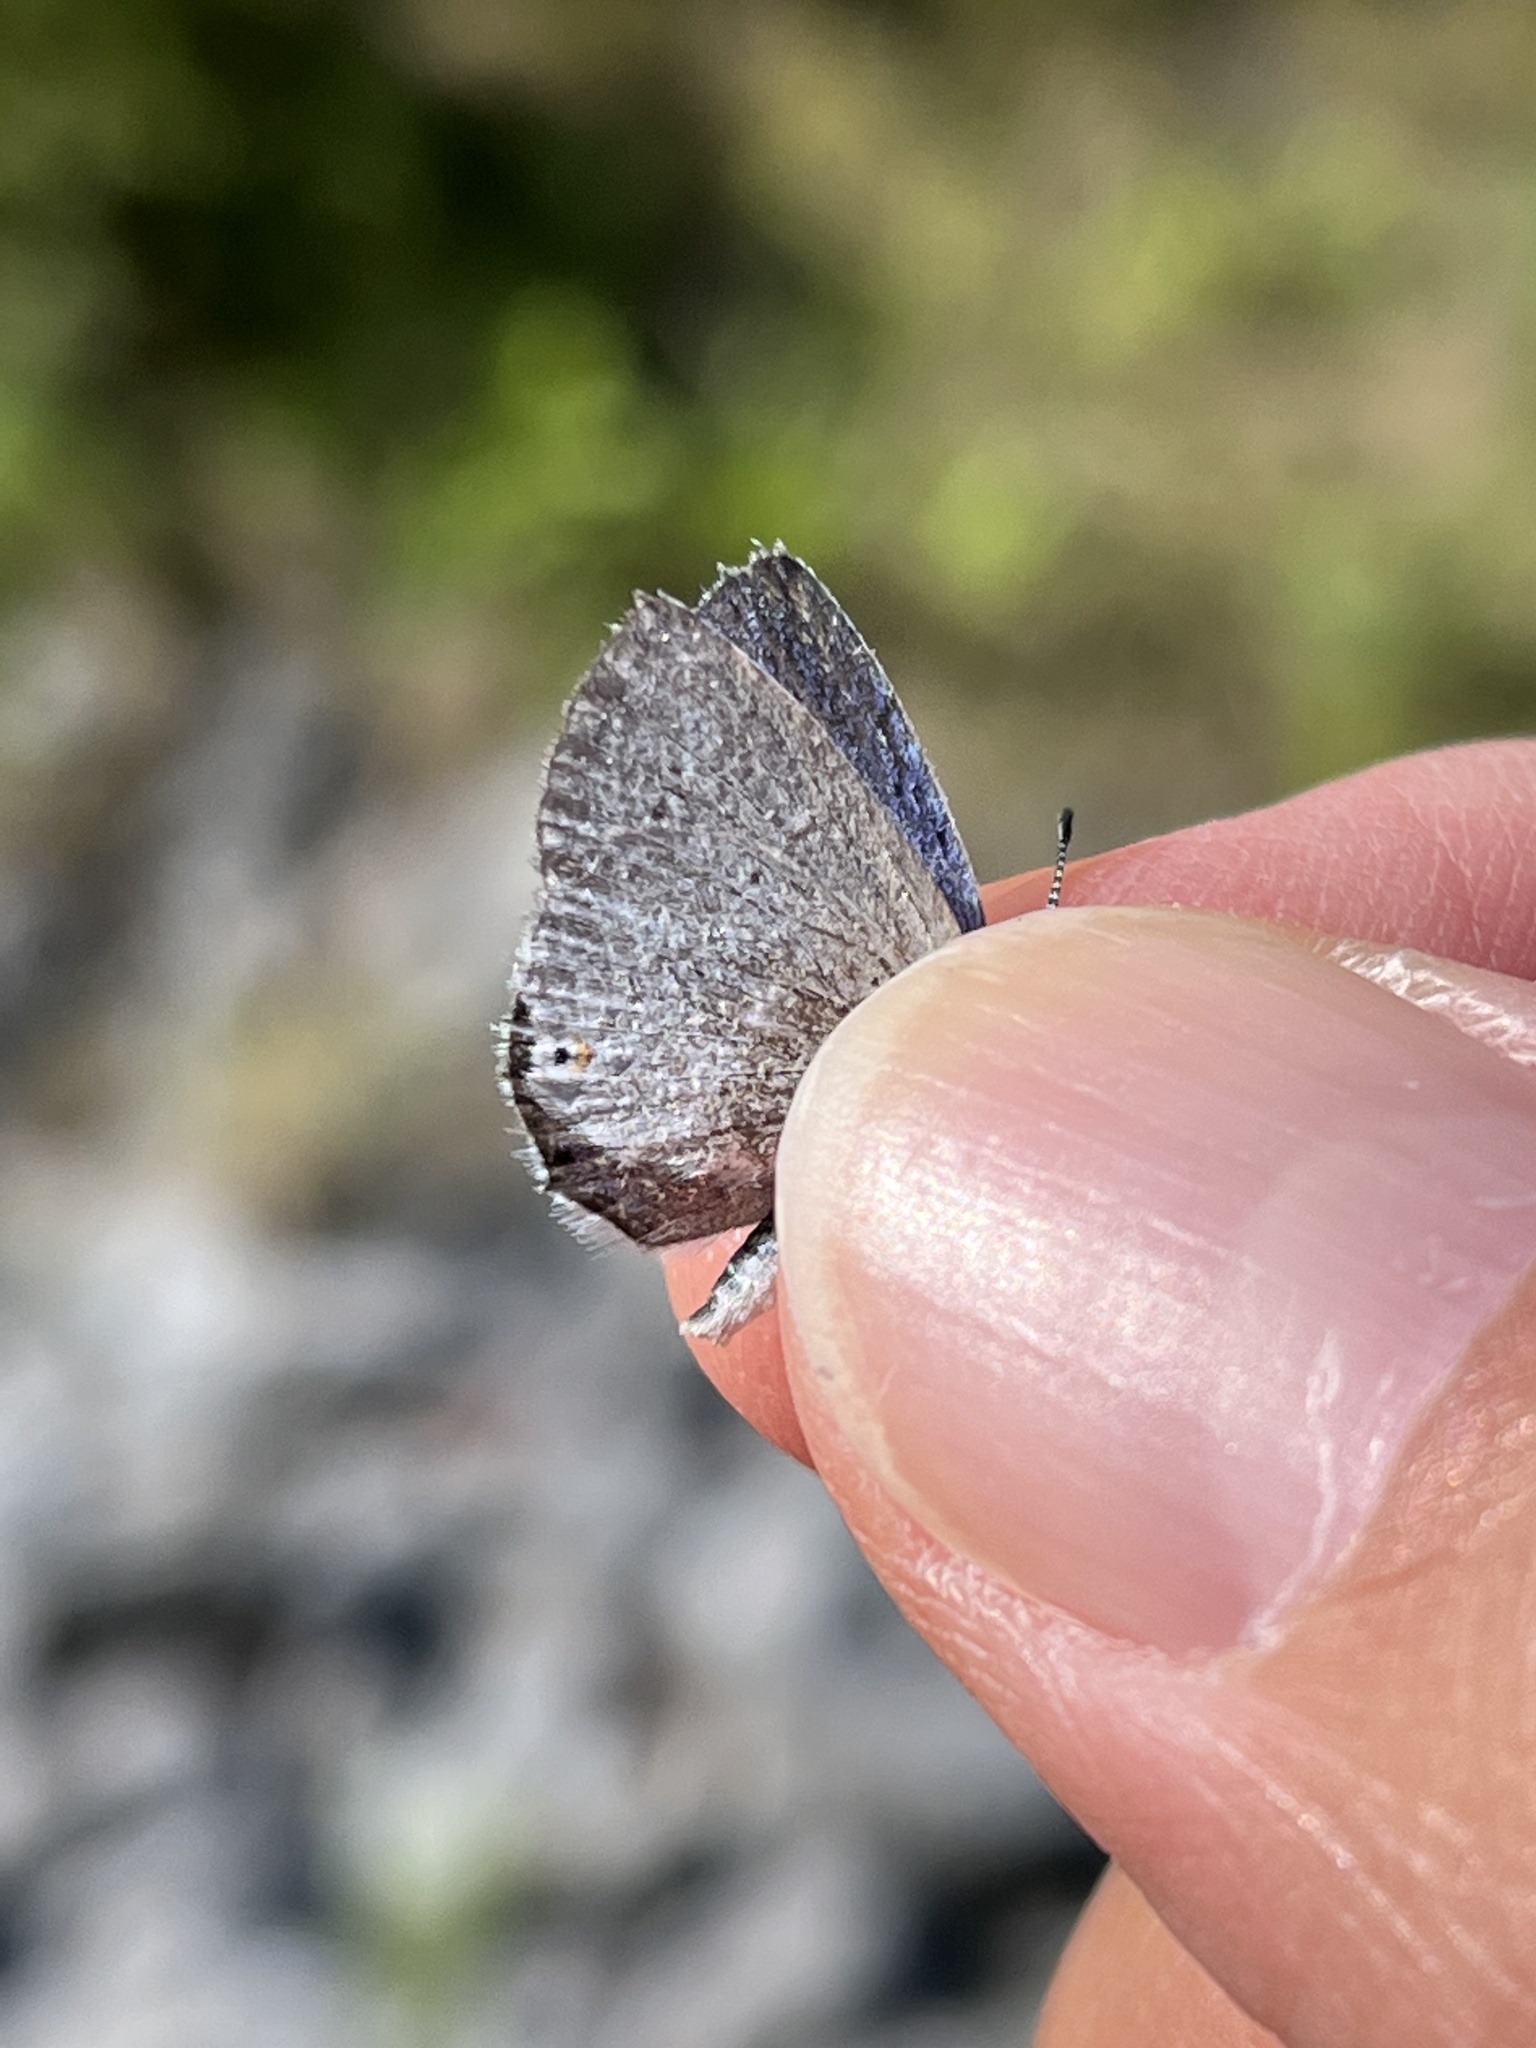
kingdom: Animalia
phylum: Arthropoda
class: Insecta
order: Lepidoptera
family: Lycaenidae
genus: Elkalyce
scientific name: Elkalyce amyntula
